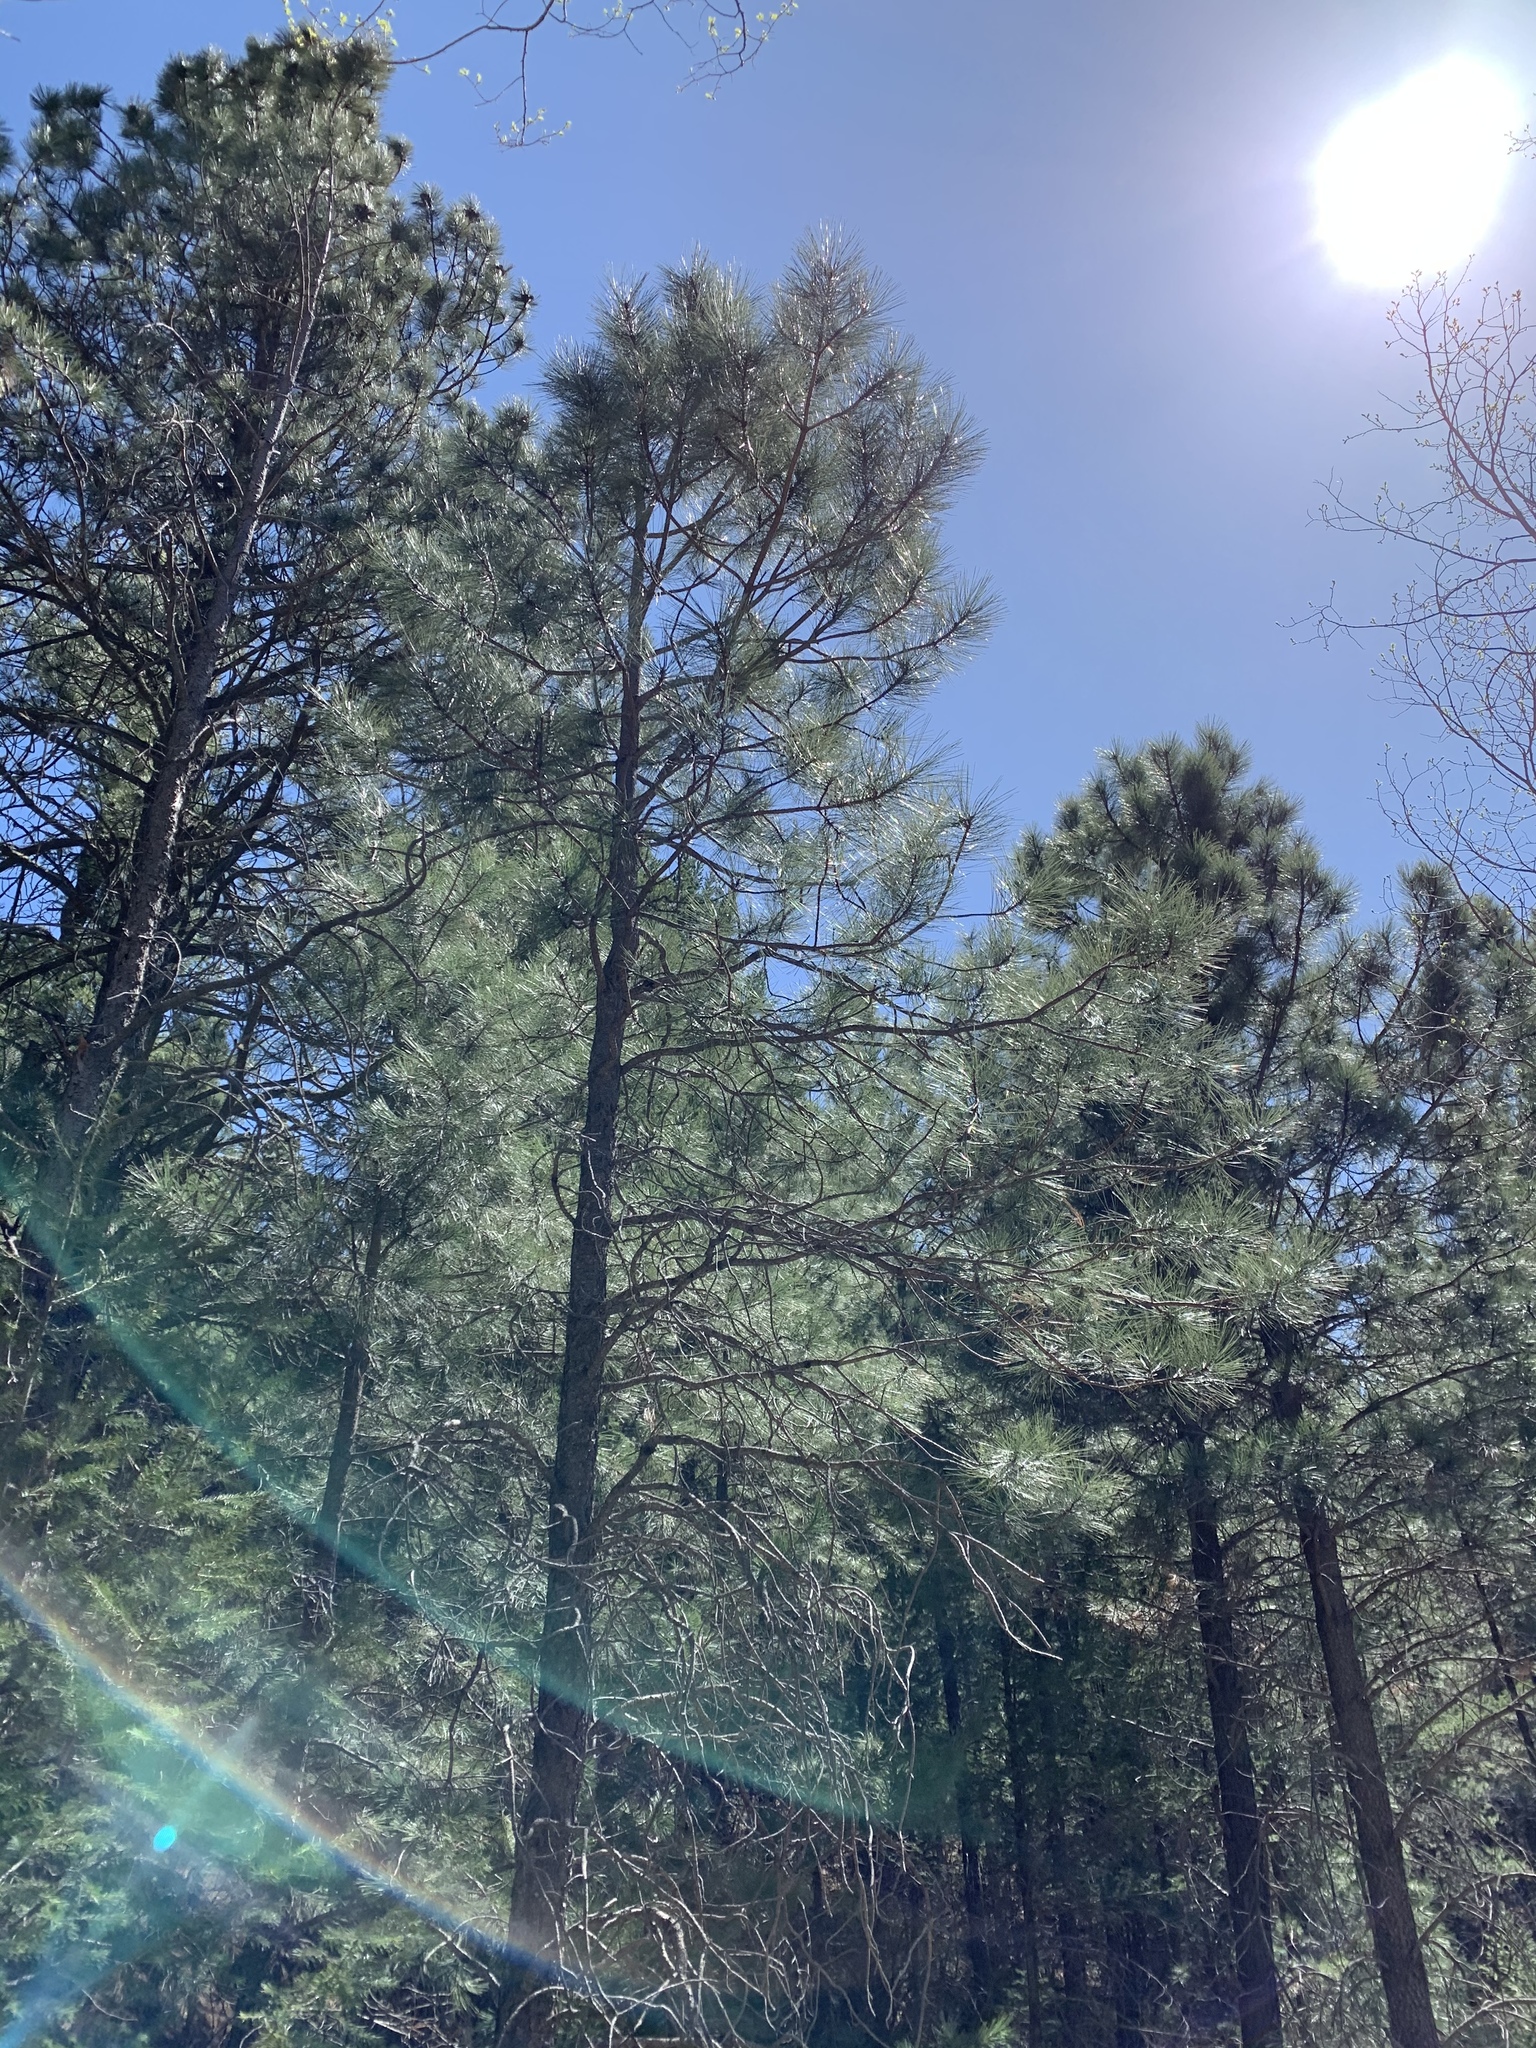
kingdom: Plantae
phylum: Tracheophyta
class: Pinopsida
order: Pinales
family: Pinaceae
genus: Pinus
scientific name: Pinus ponderosa
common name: Western yellow-pine
